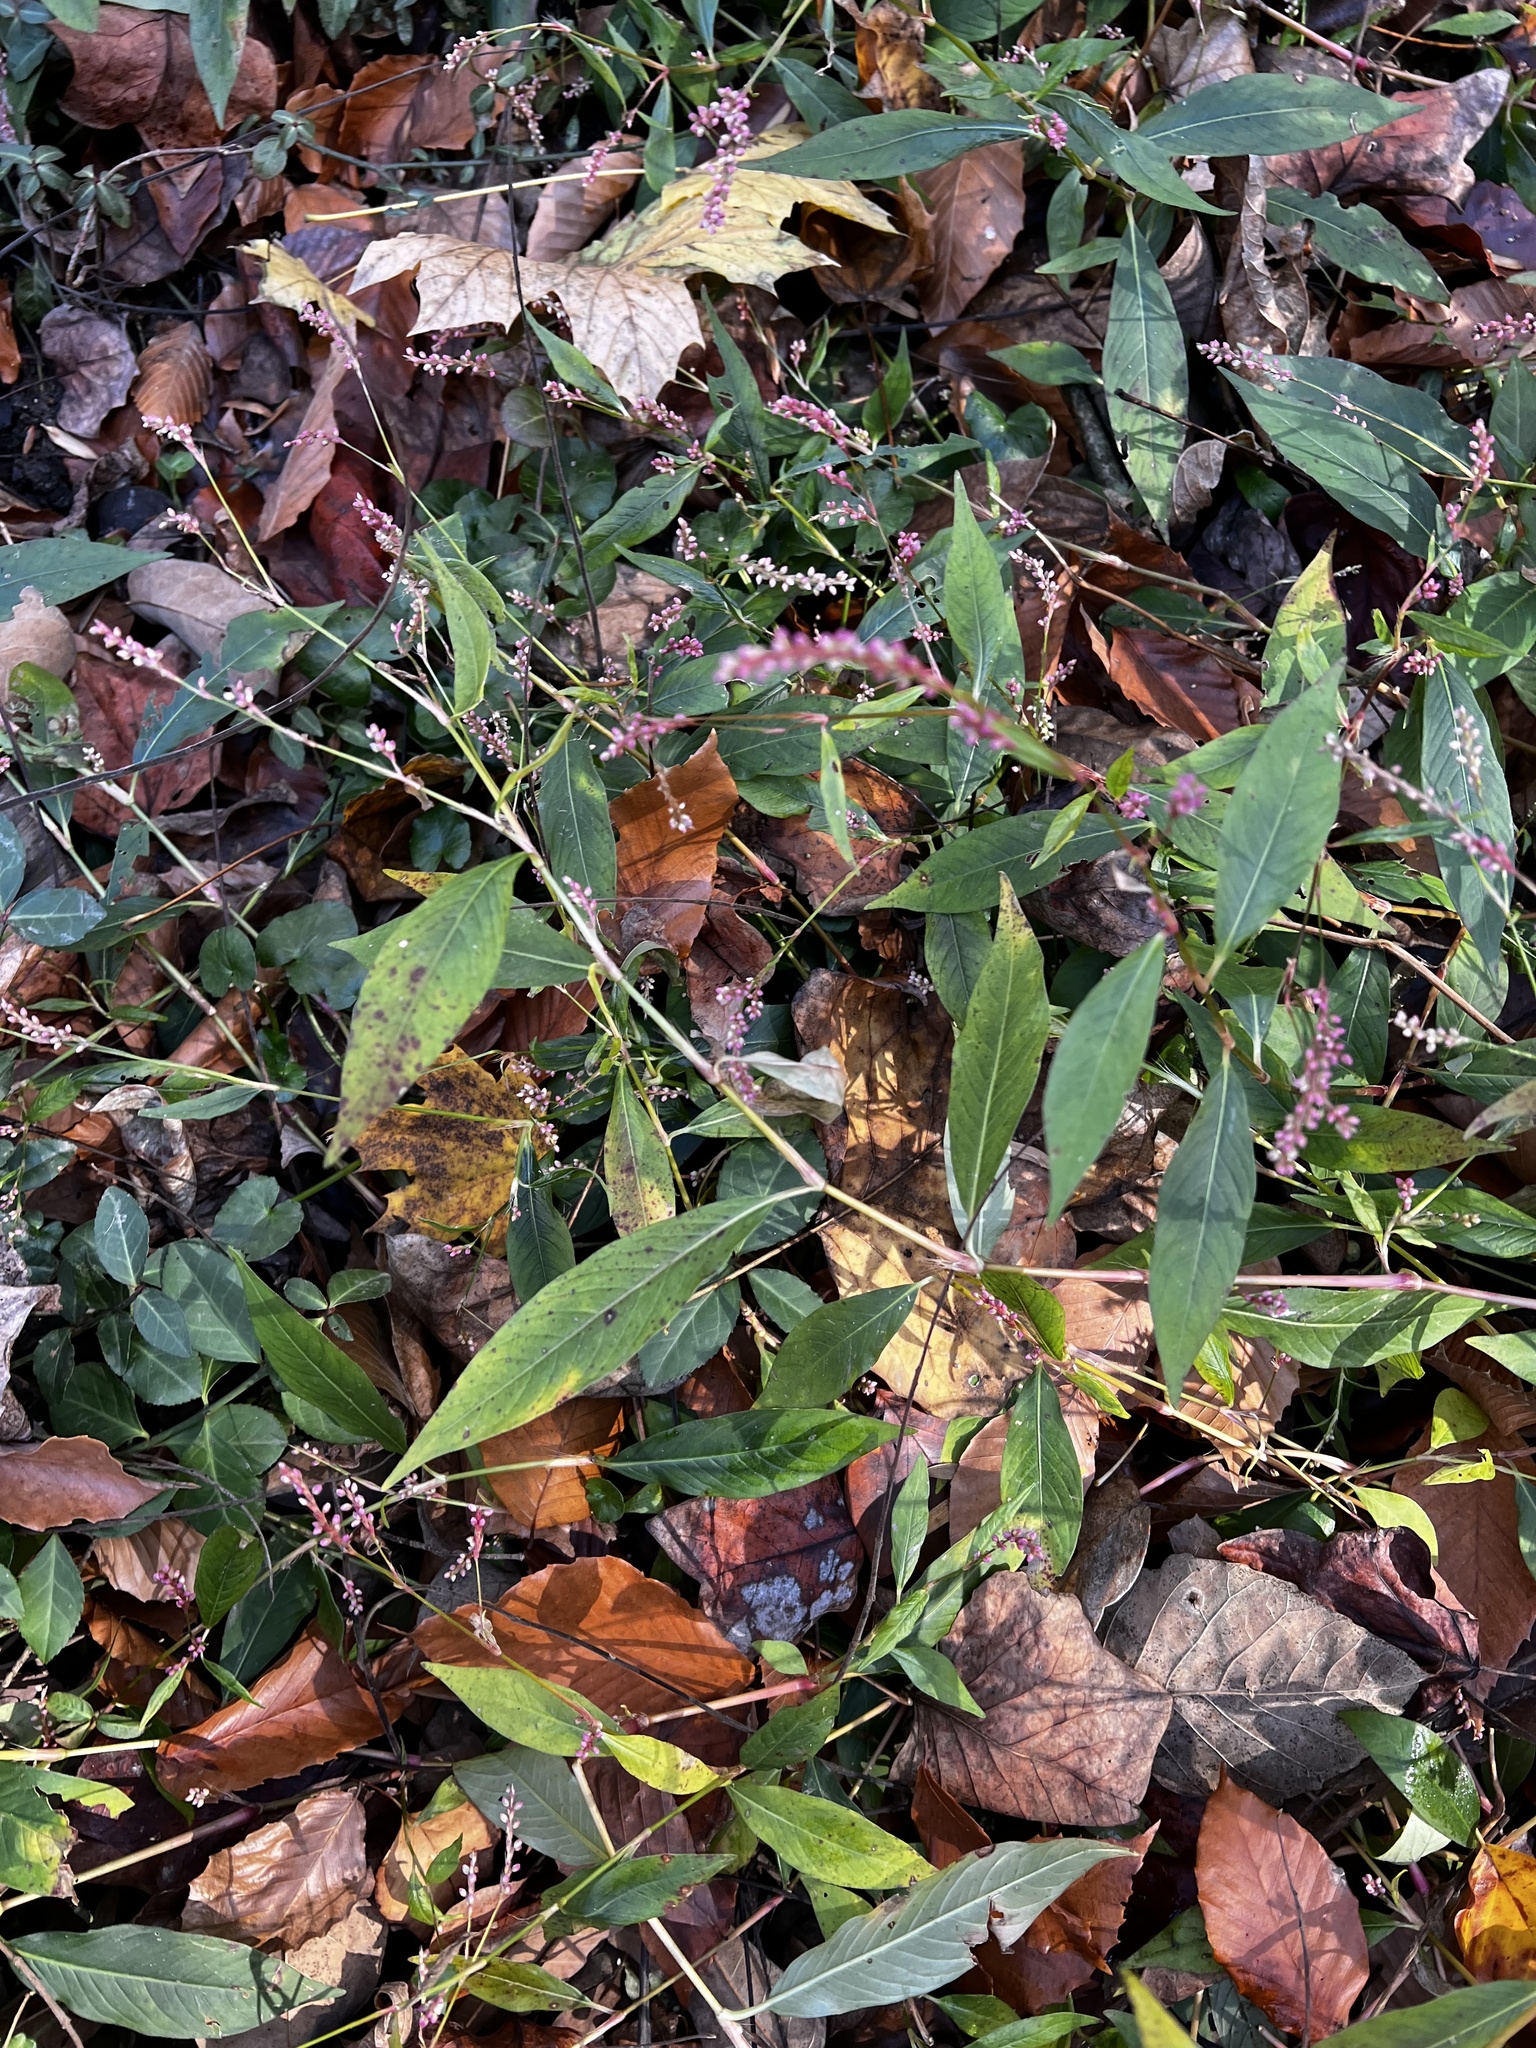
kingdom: Plantae
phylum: Tracheophyta
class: Magnoliopsida
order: Caryophyllales
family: Polygonaceae
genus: Persicaria
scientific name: Persicaria longiseta
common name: Bristly lady's-thumb
